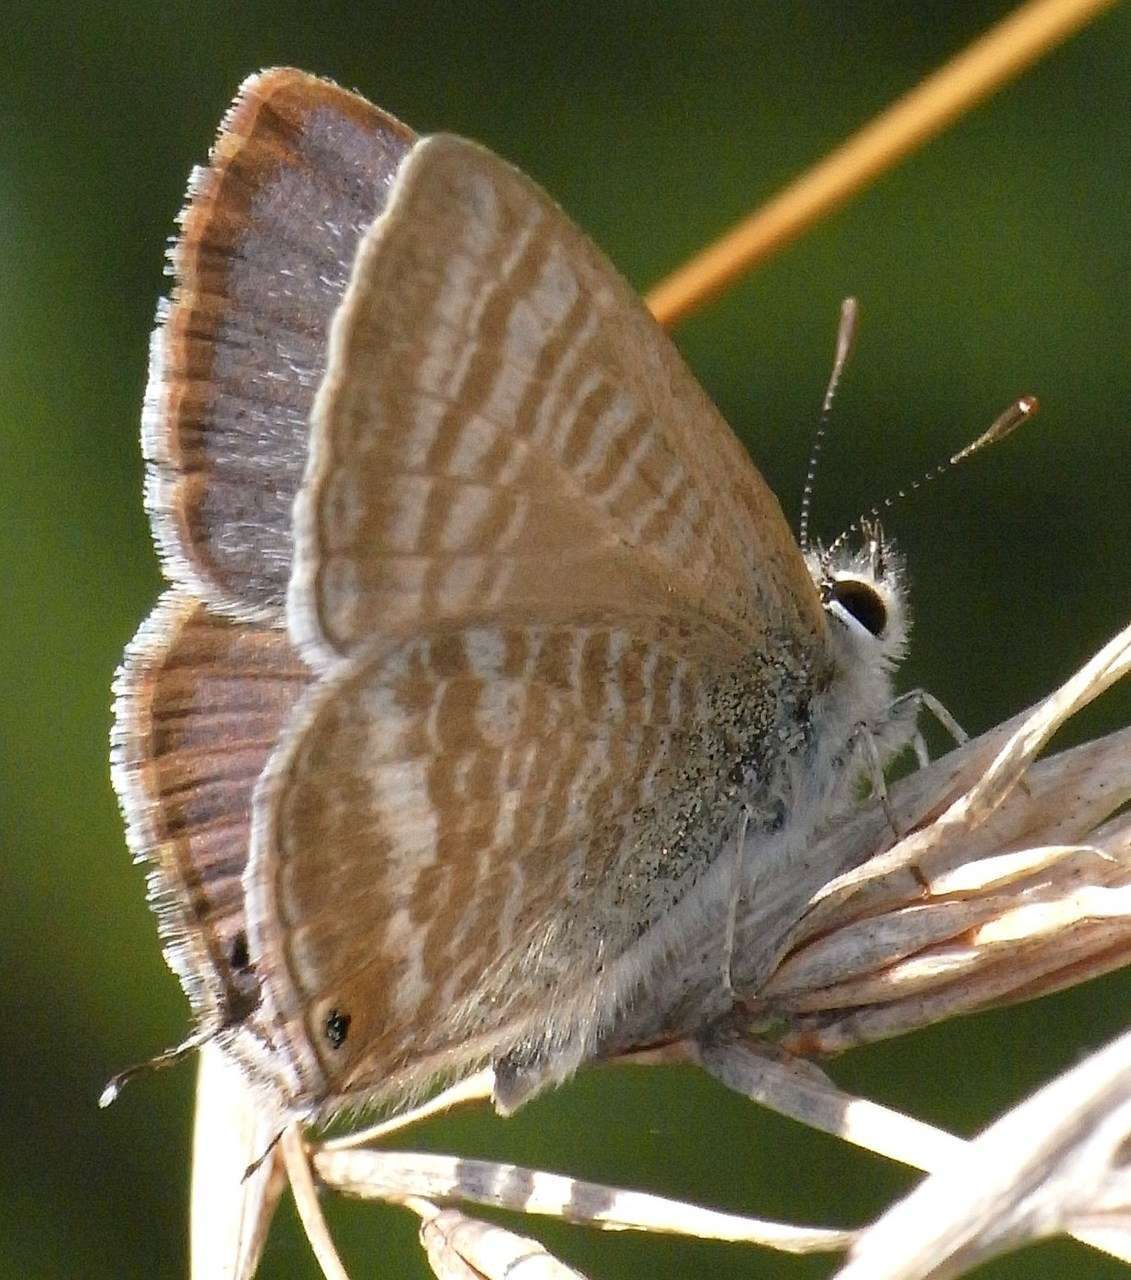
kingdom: Animalia
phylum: Arthropoda
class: Insecta
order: Lepidoptera
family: Lycaenidae
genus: Lampides
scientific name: Lampides boeticus
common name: Long-tailed blue
